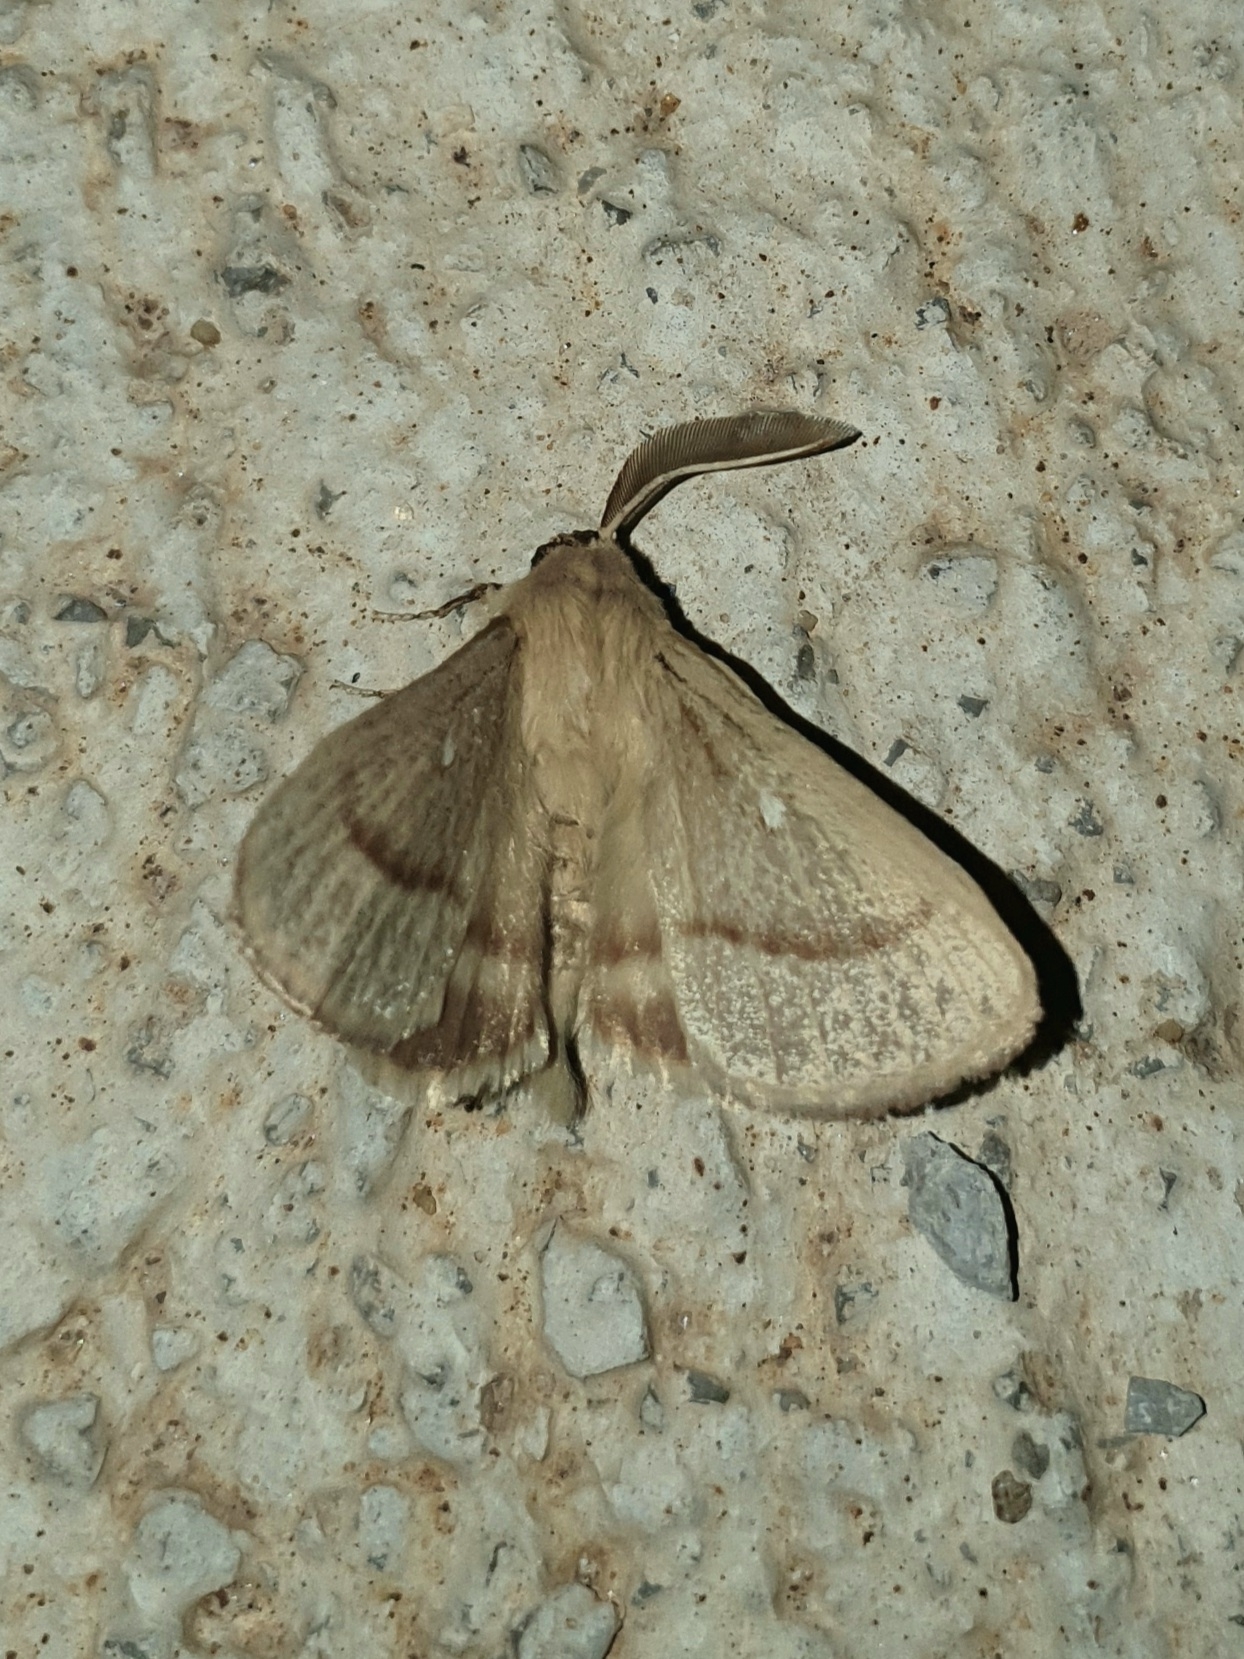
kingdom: Animalia
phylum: Arthropoda
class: Insecta
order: Lepidoptera
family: Lasiocampidae
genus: Lasiocampa
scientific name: Lasiocampa trifolii
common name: Grass eggar
